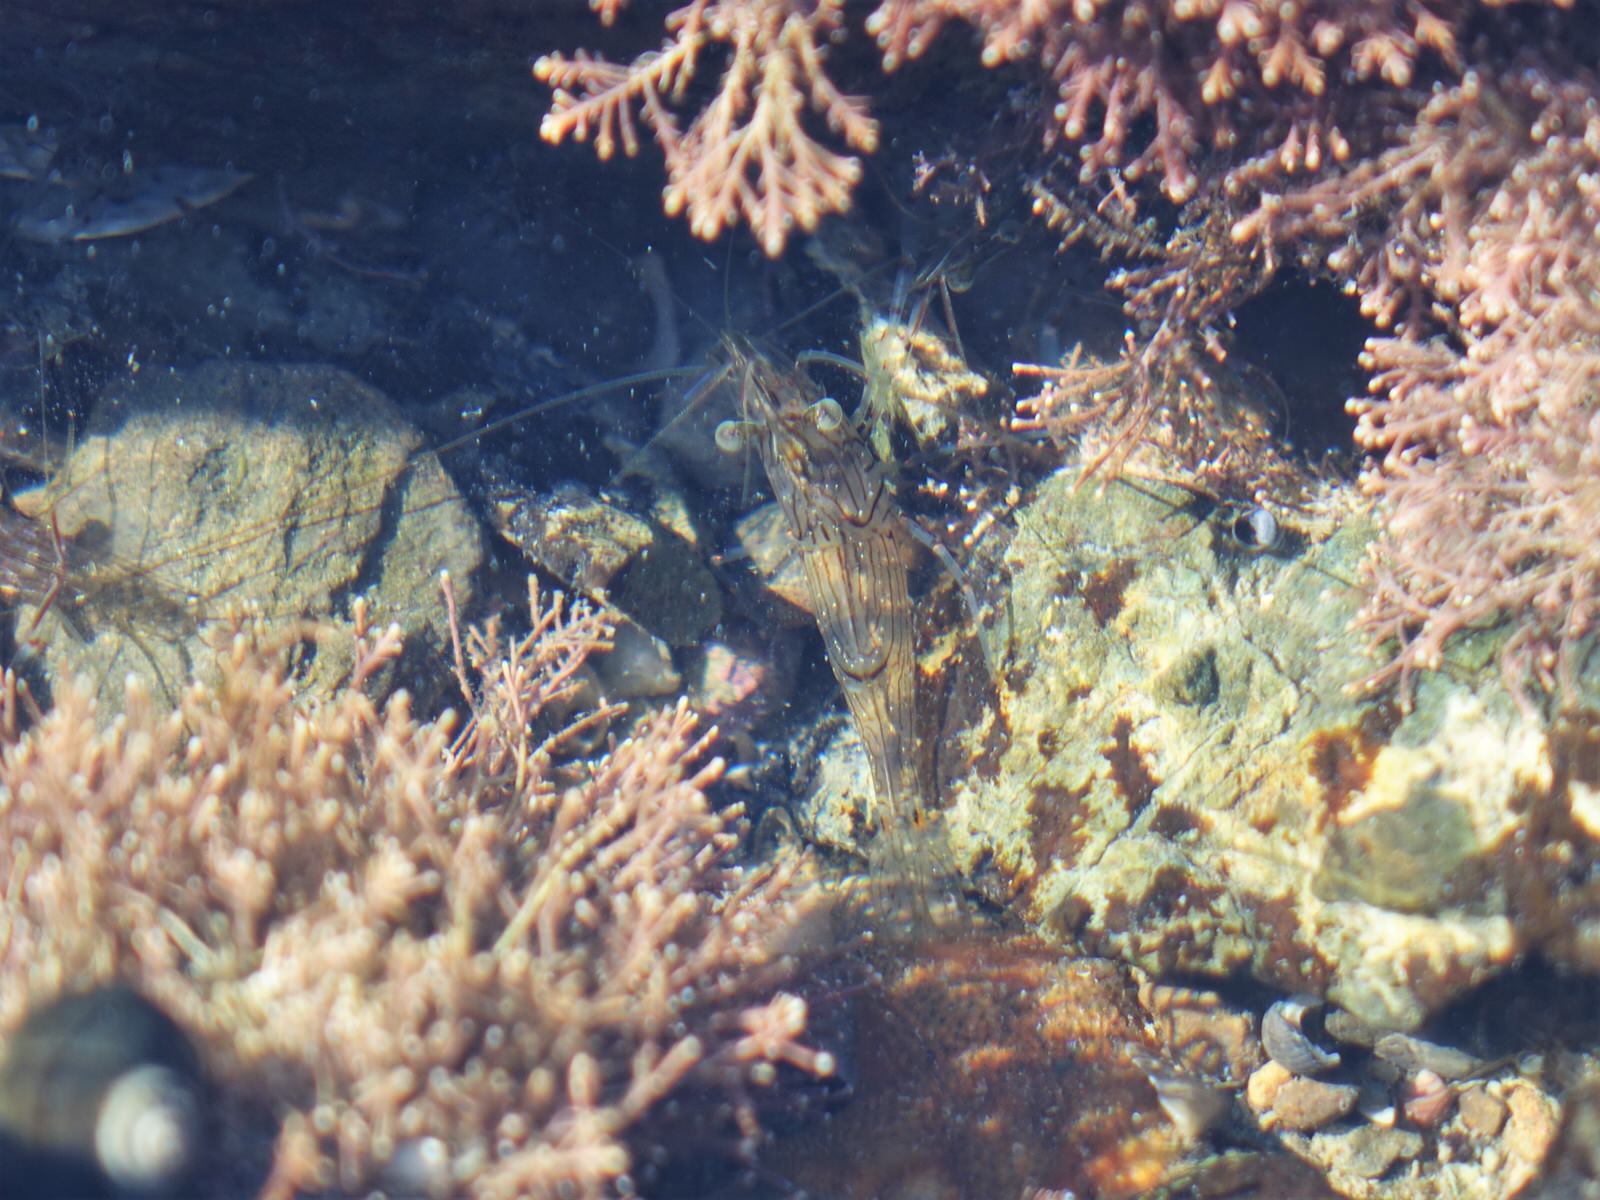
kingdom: Animalia
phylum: Arthropoda
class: Malacostraca
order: Decapoda
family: Palaemonidae
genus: Palaemon
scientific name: Palaemon affinis
